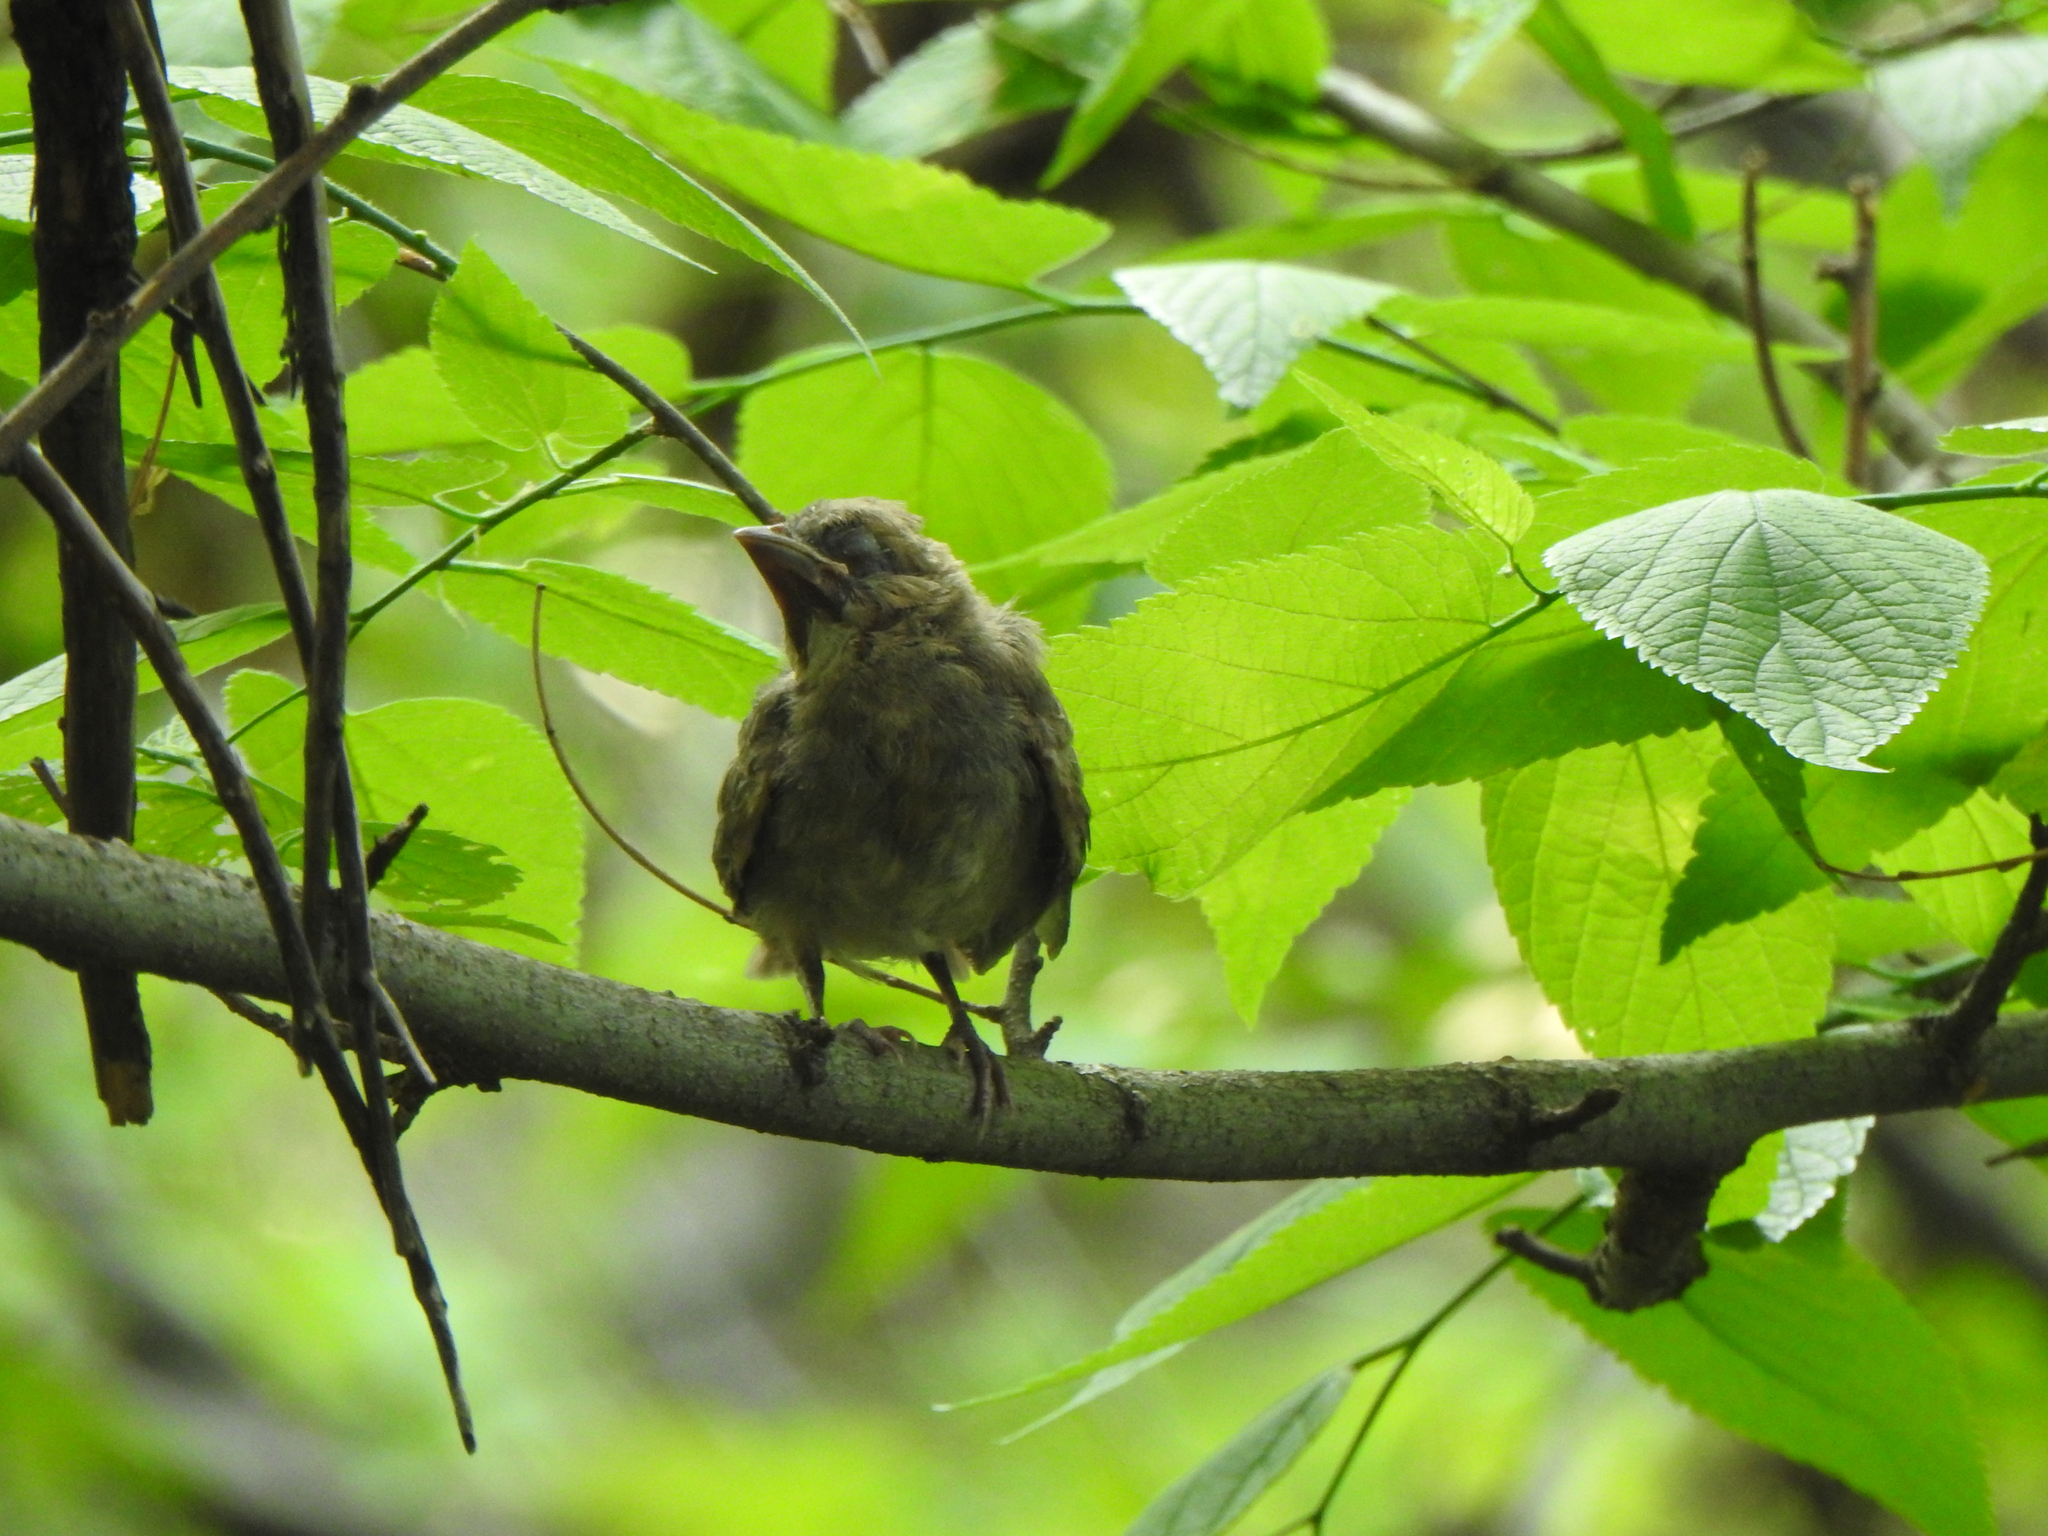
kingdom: Animalia
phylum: Chordata
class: Aves
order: Passeriformes
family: Cardinalidae
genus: Cardinalis
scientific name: Cardinalis cardinalis
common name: Northern cardinal
